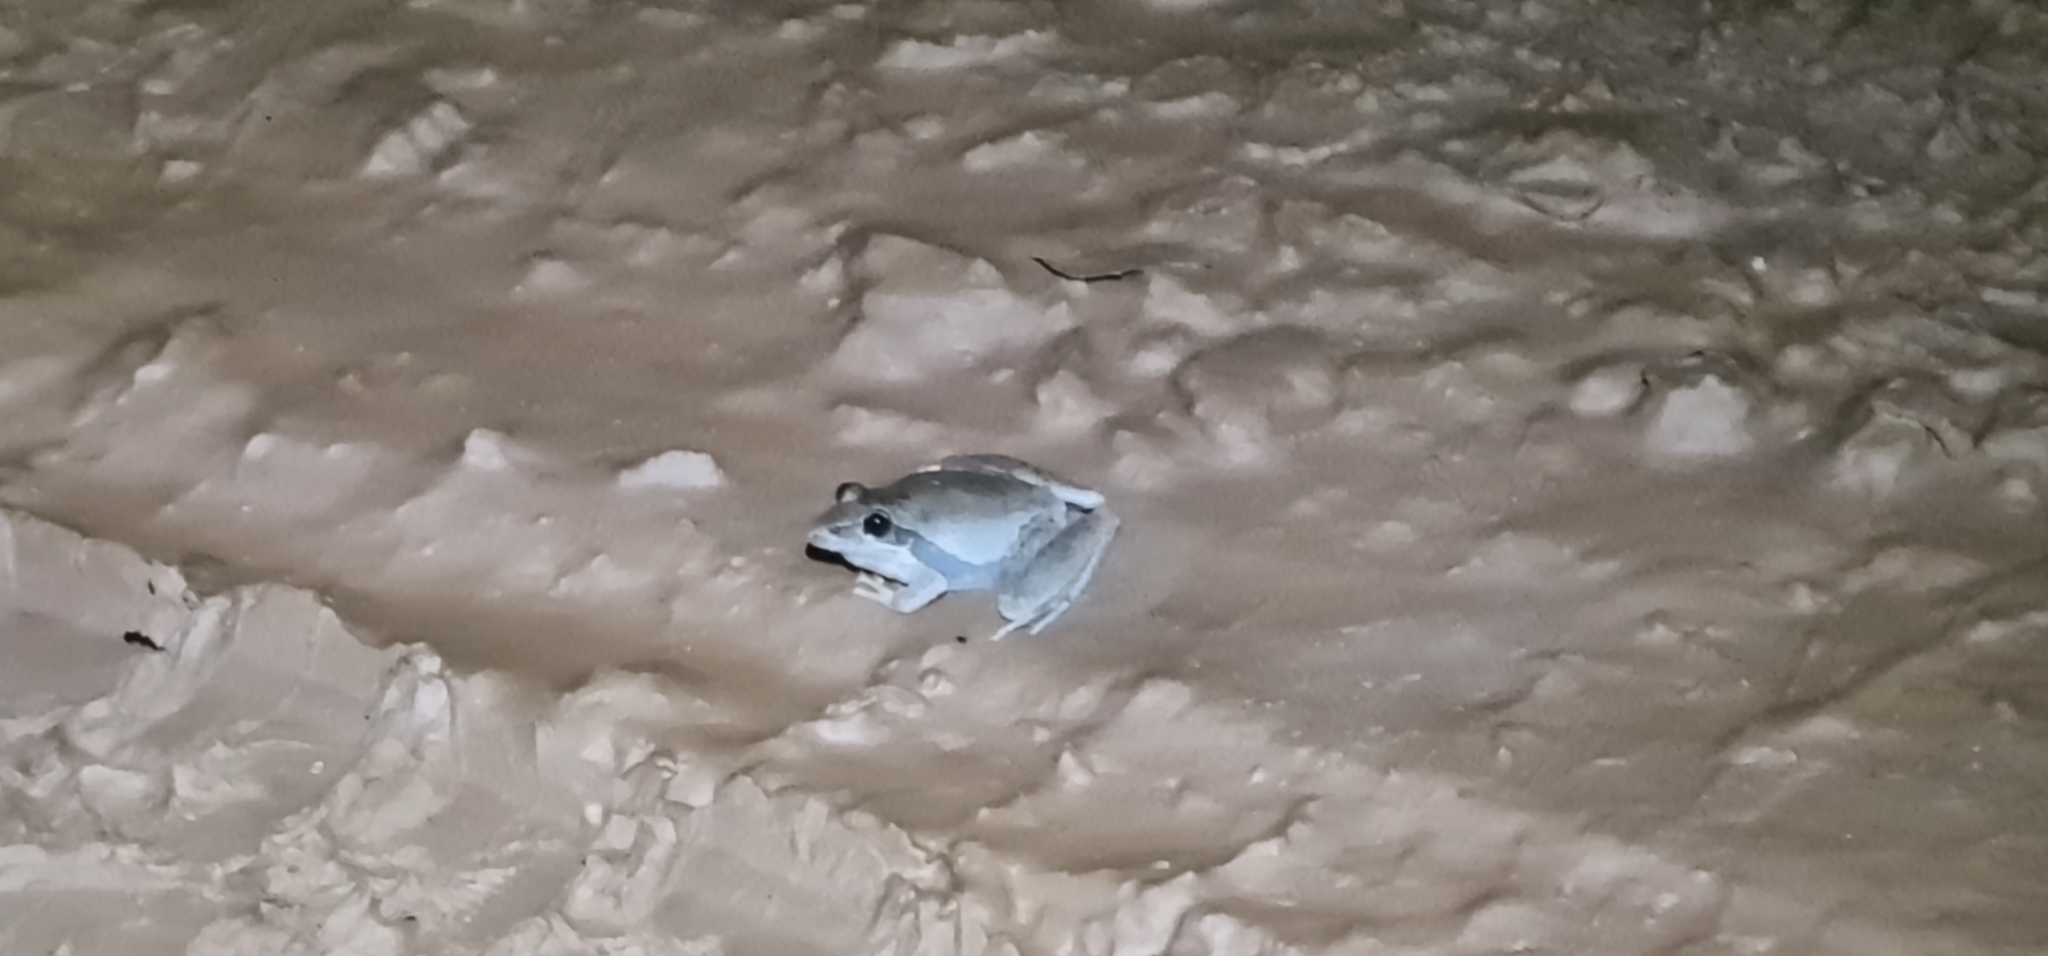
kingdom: Animalia
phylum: Chordata
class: Amphibia
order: Anura
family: Pelodryadidae
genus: Litoria
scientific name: Litoria watjulumensis
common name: Wotjulum frog
